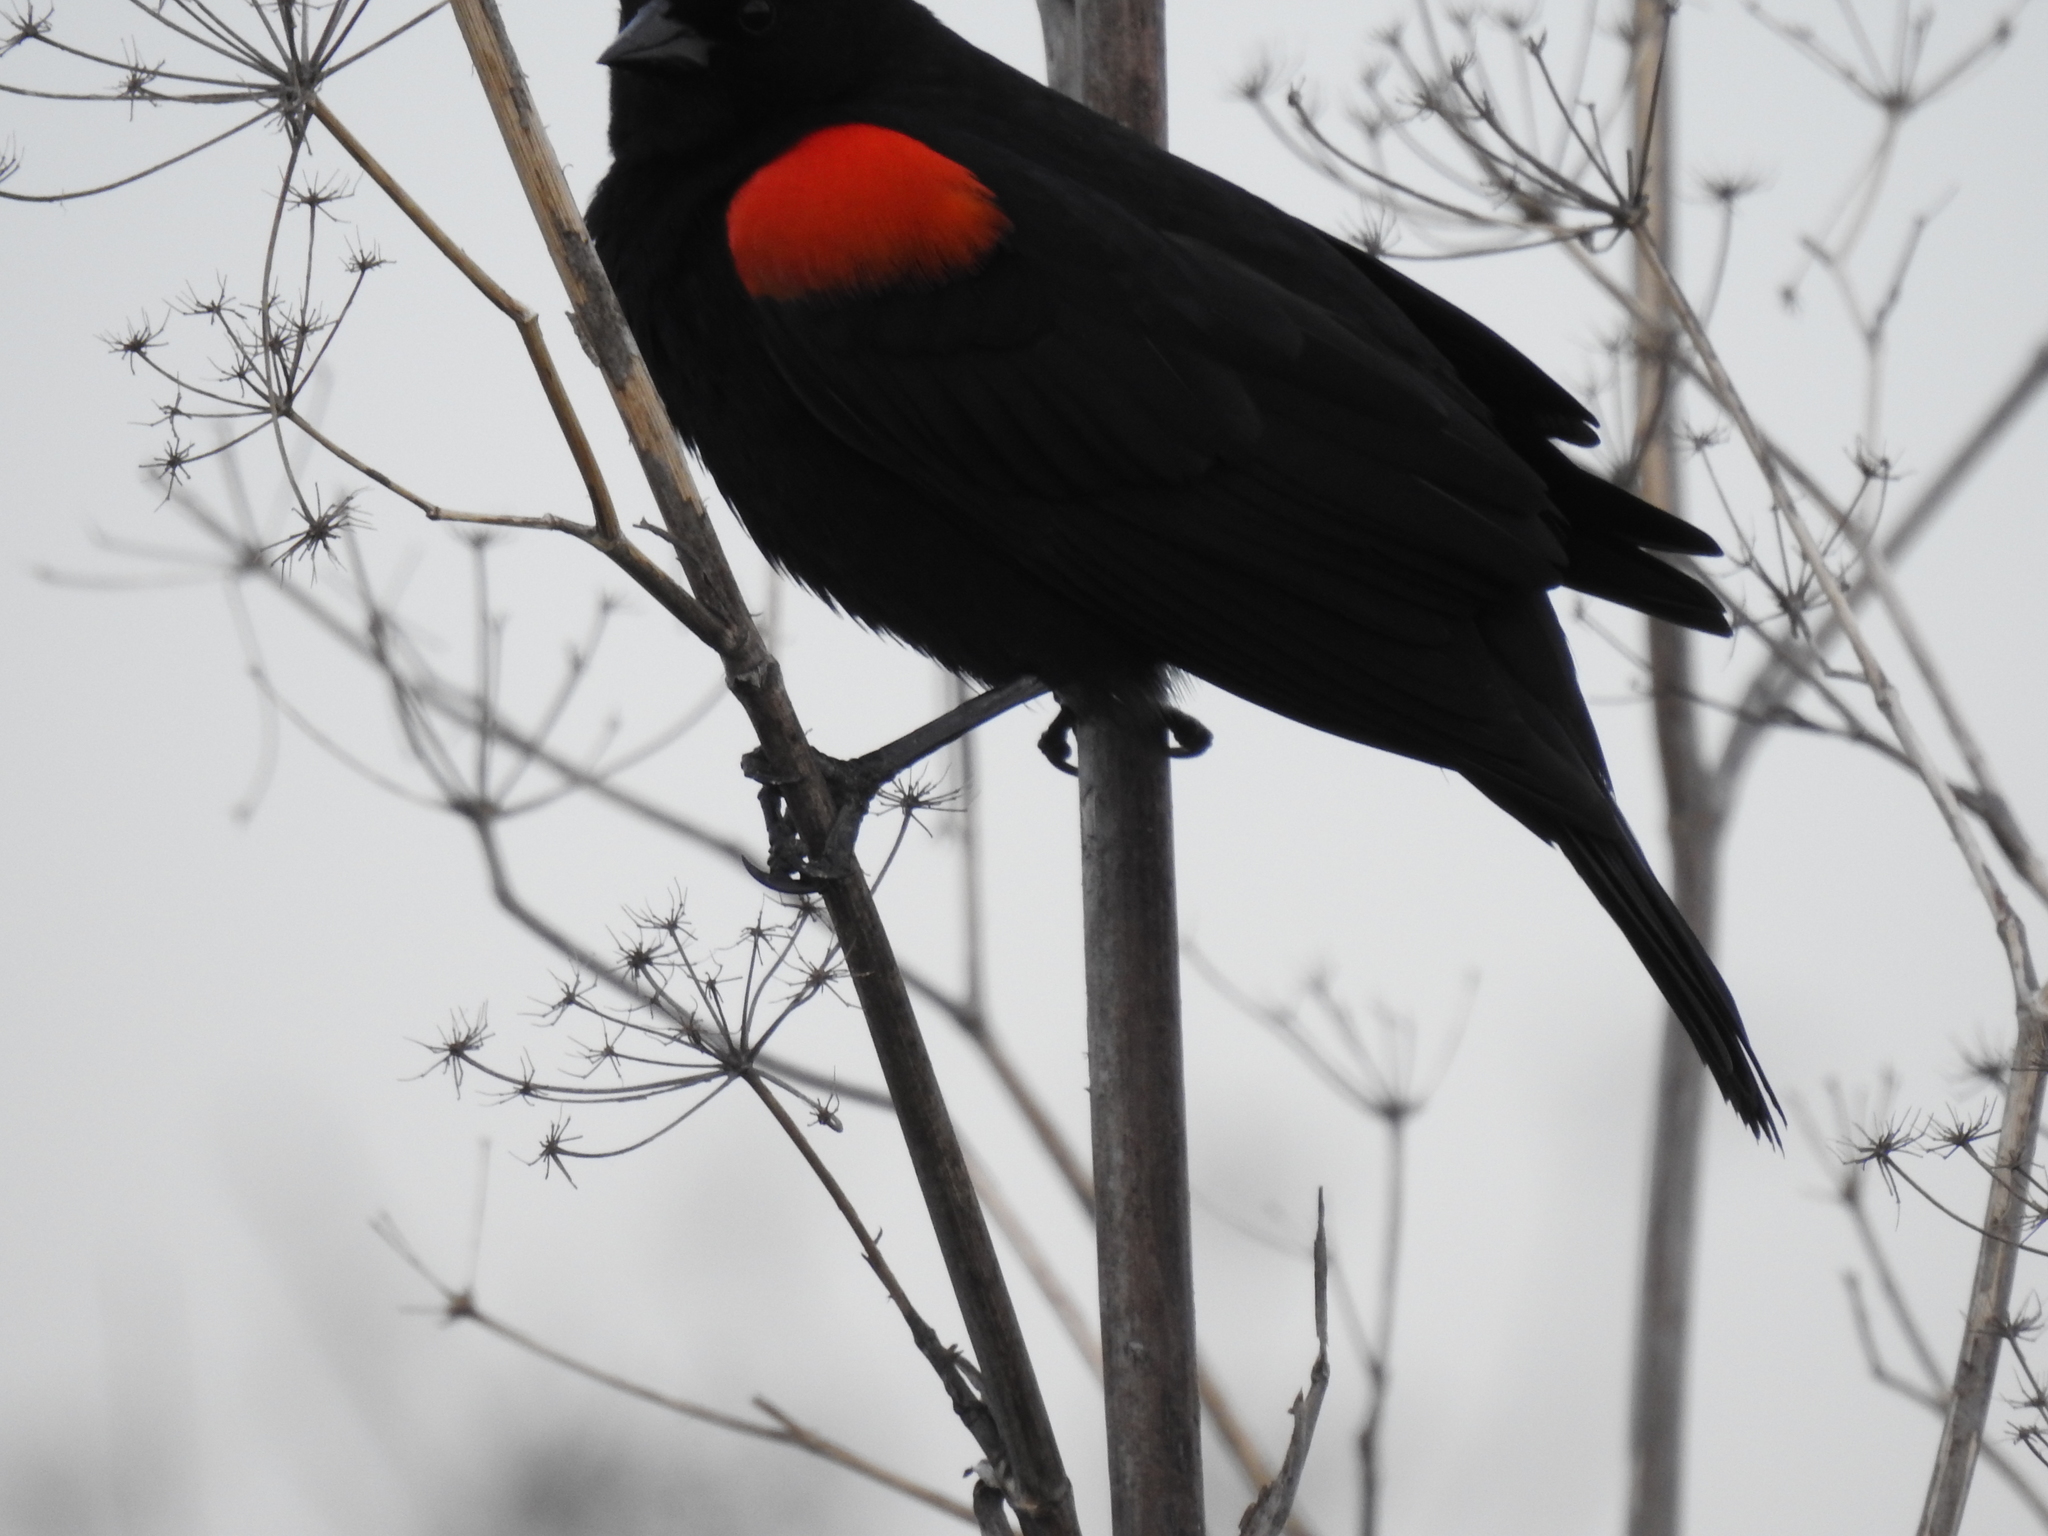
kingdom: Animalia
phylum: Chordata
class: Aves
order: Passeriformes
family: Icteridae
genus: Agelaius
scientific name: Agelaius phoeniceus
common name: Red-winged blackbird
